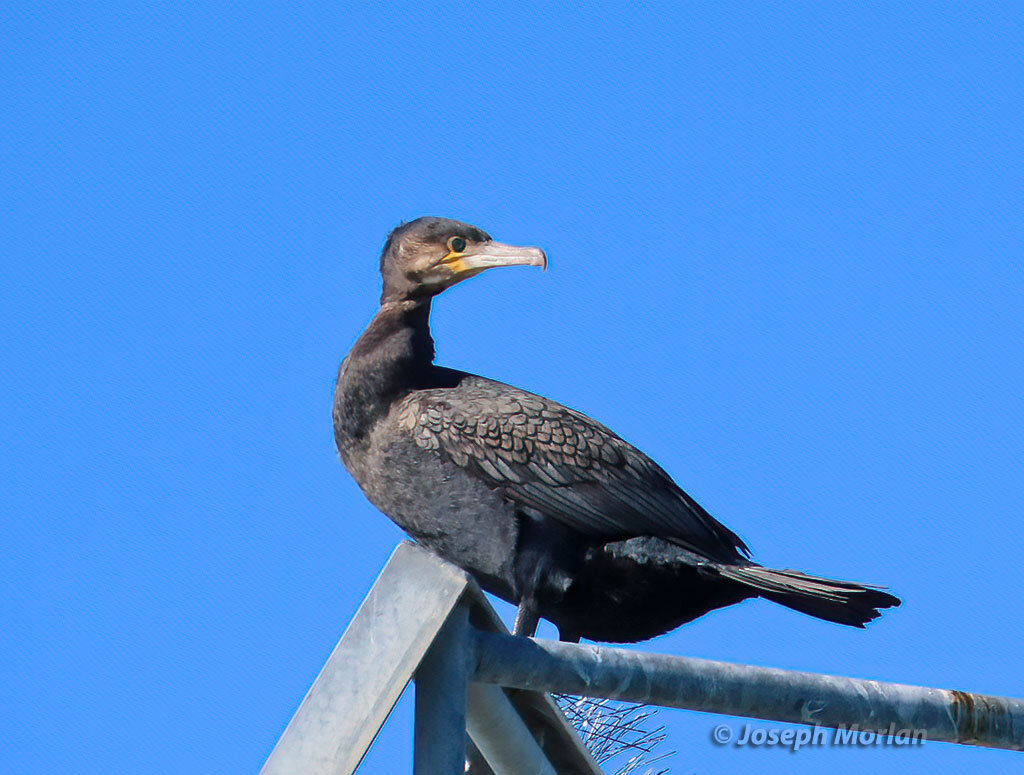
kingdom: Animalia
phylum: Chordata
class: Aves
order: Suliformes
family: Phalacrocoracidae
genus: Phalacrocorax
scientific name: Phalacrocorax carbo
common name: Great cormorant
